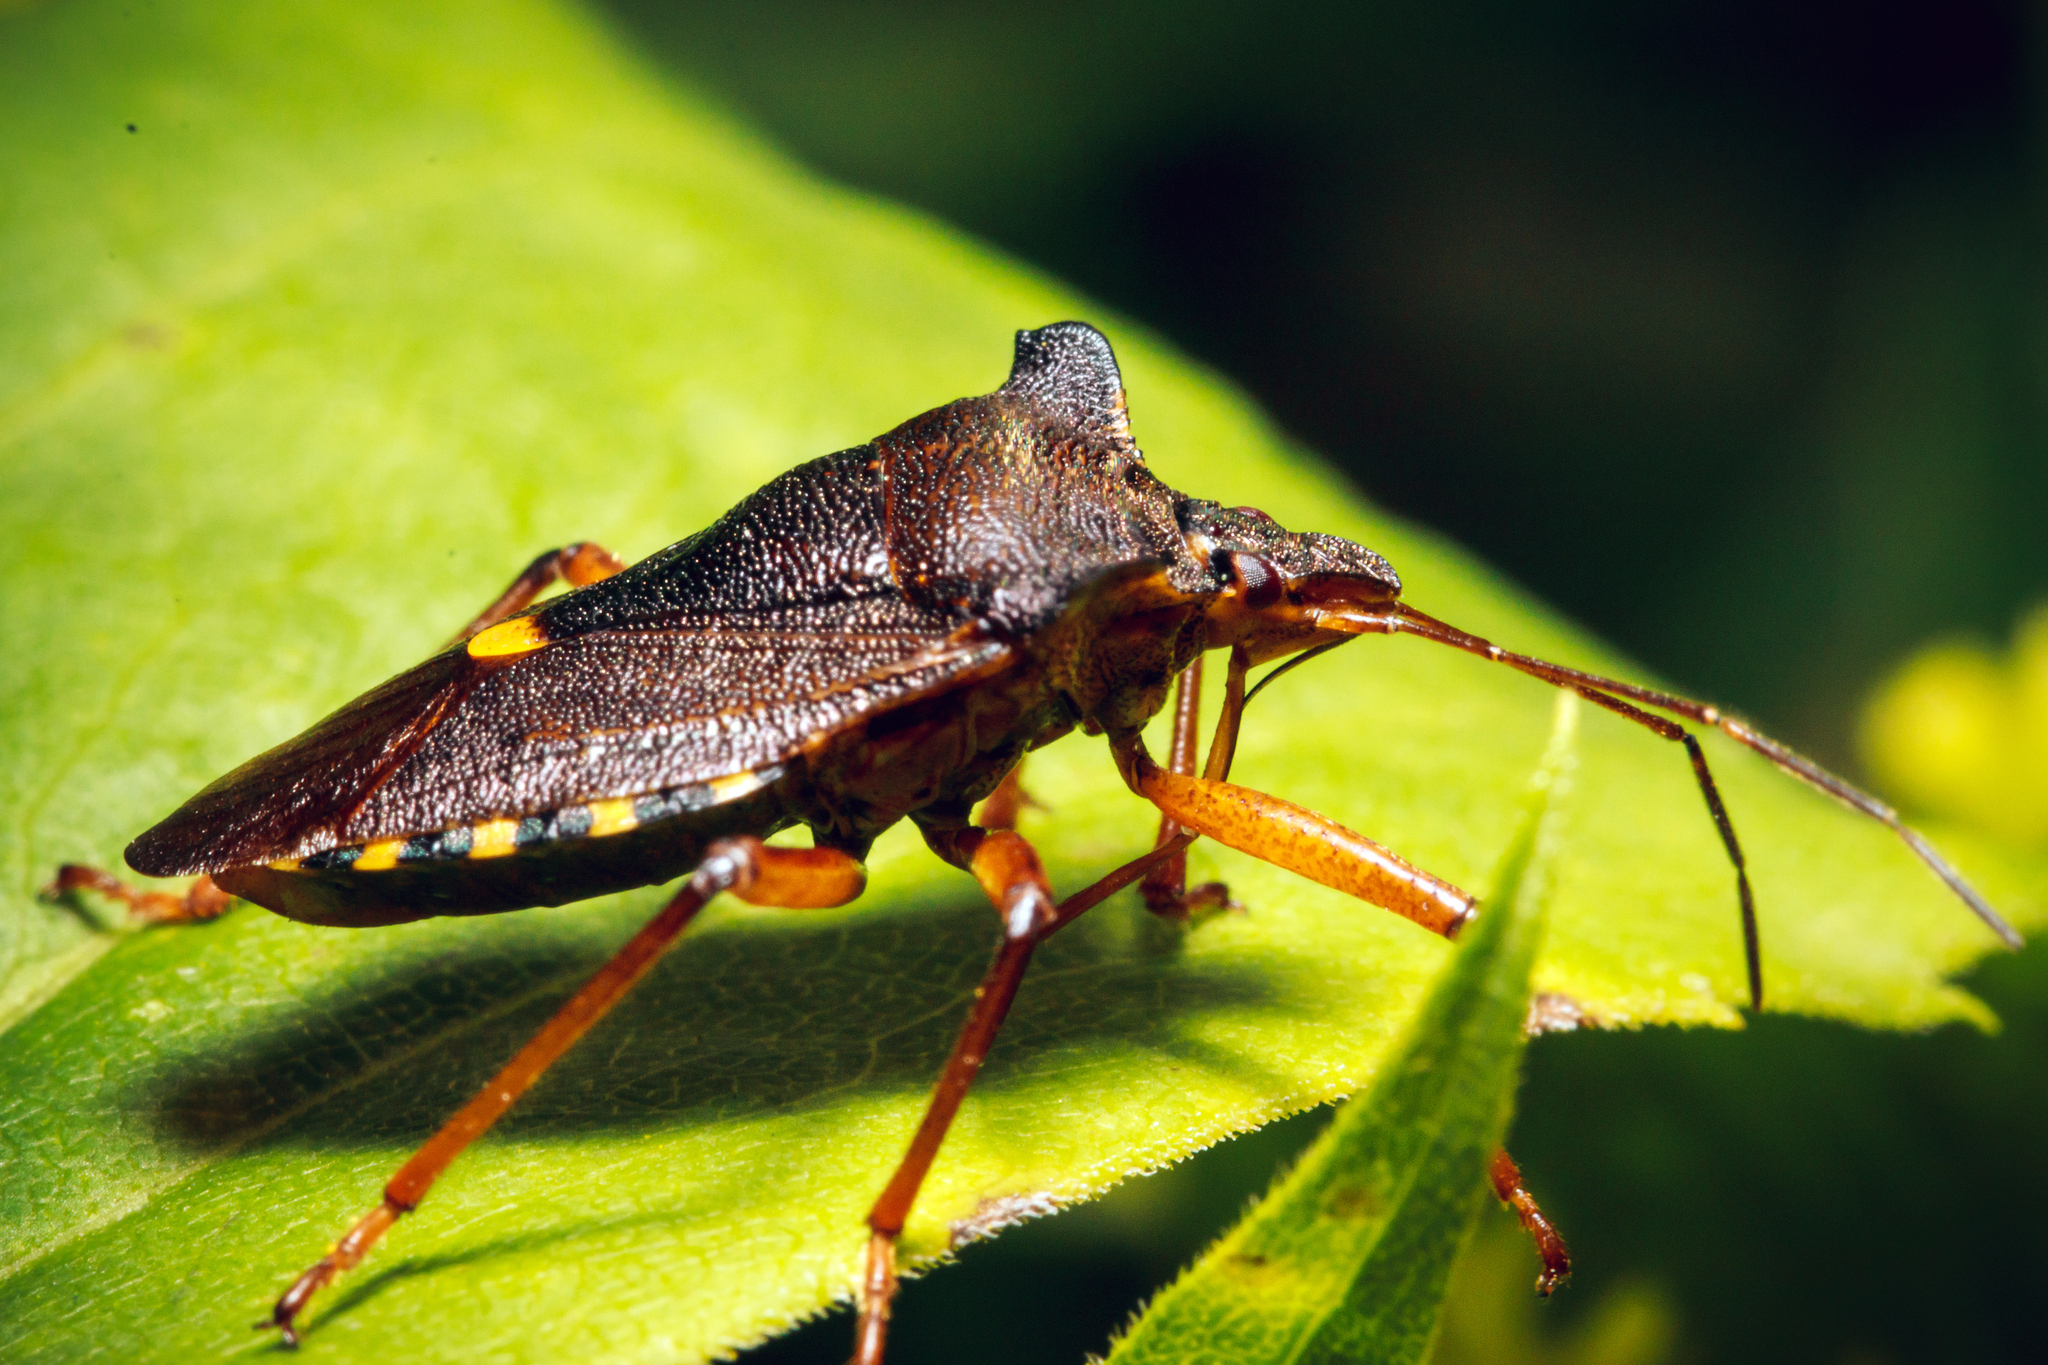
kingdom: Animalia
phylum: Arthropoda
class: Insecta
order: Hemiptera
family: Pentatomidae
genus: Pentatoma
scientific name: Pentatoma rufipes
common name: Forest bug
